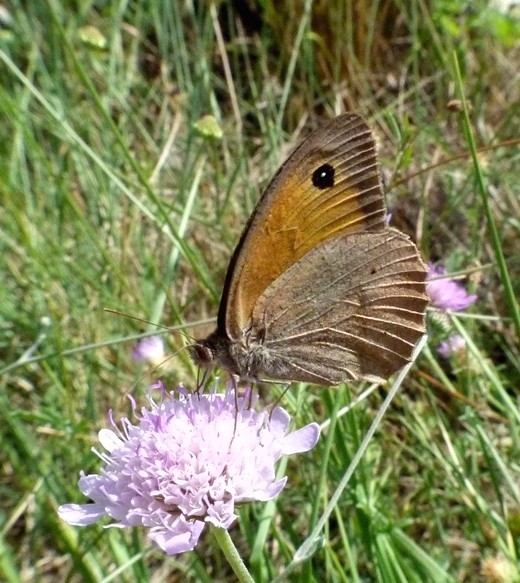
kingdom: Animalia
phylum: Arthropoda
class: Insecta
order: Lepidoptera
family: Nymphalidae
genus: Maniola
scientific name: Maniola jurtina
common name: Meadow brown
